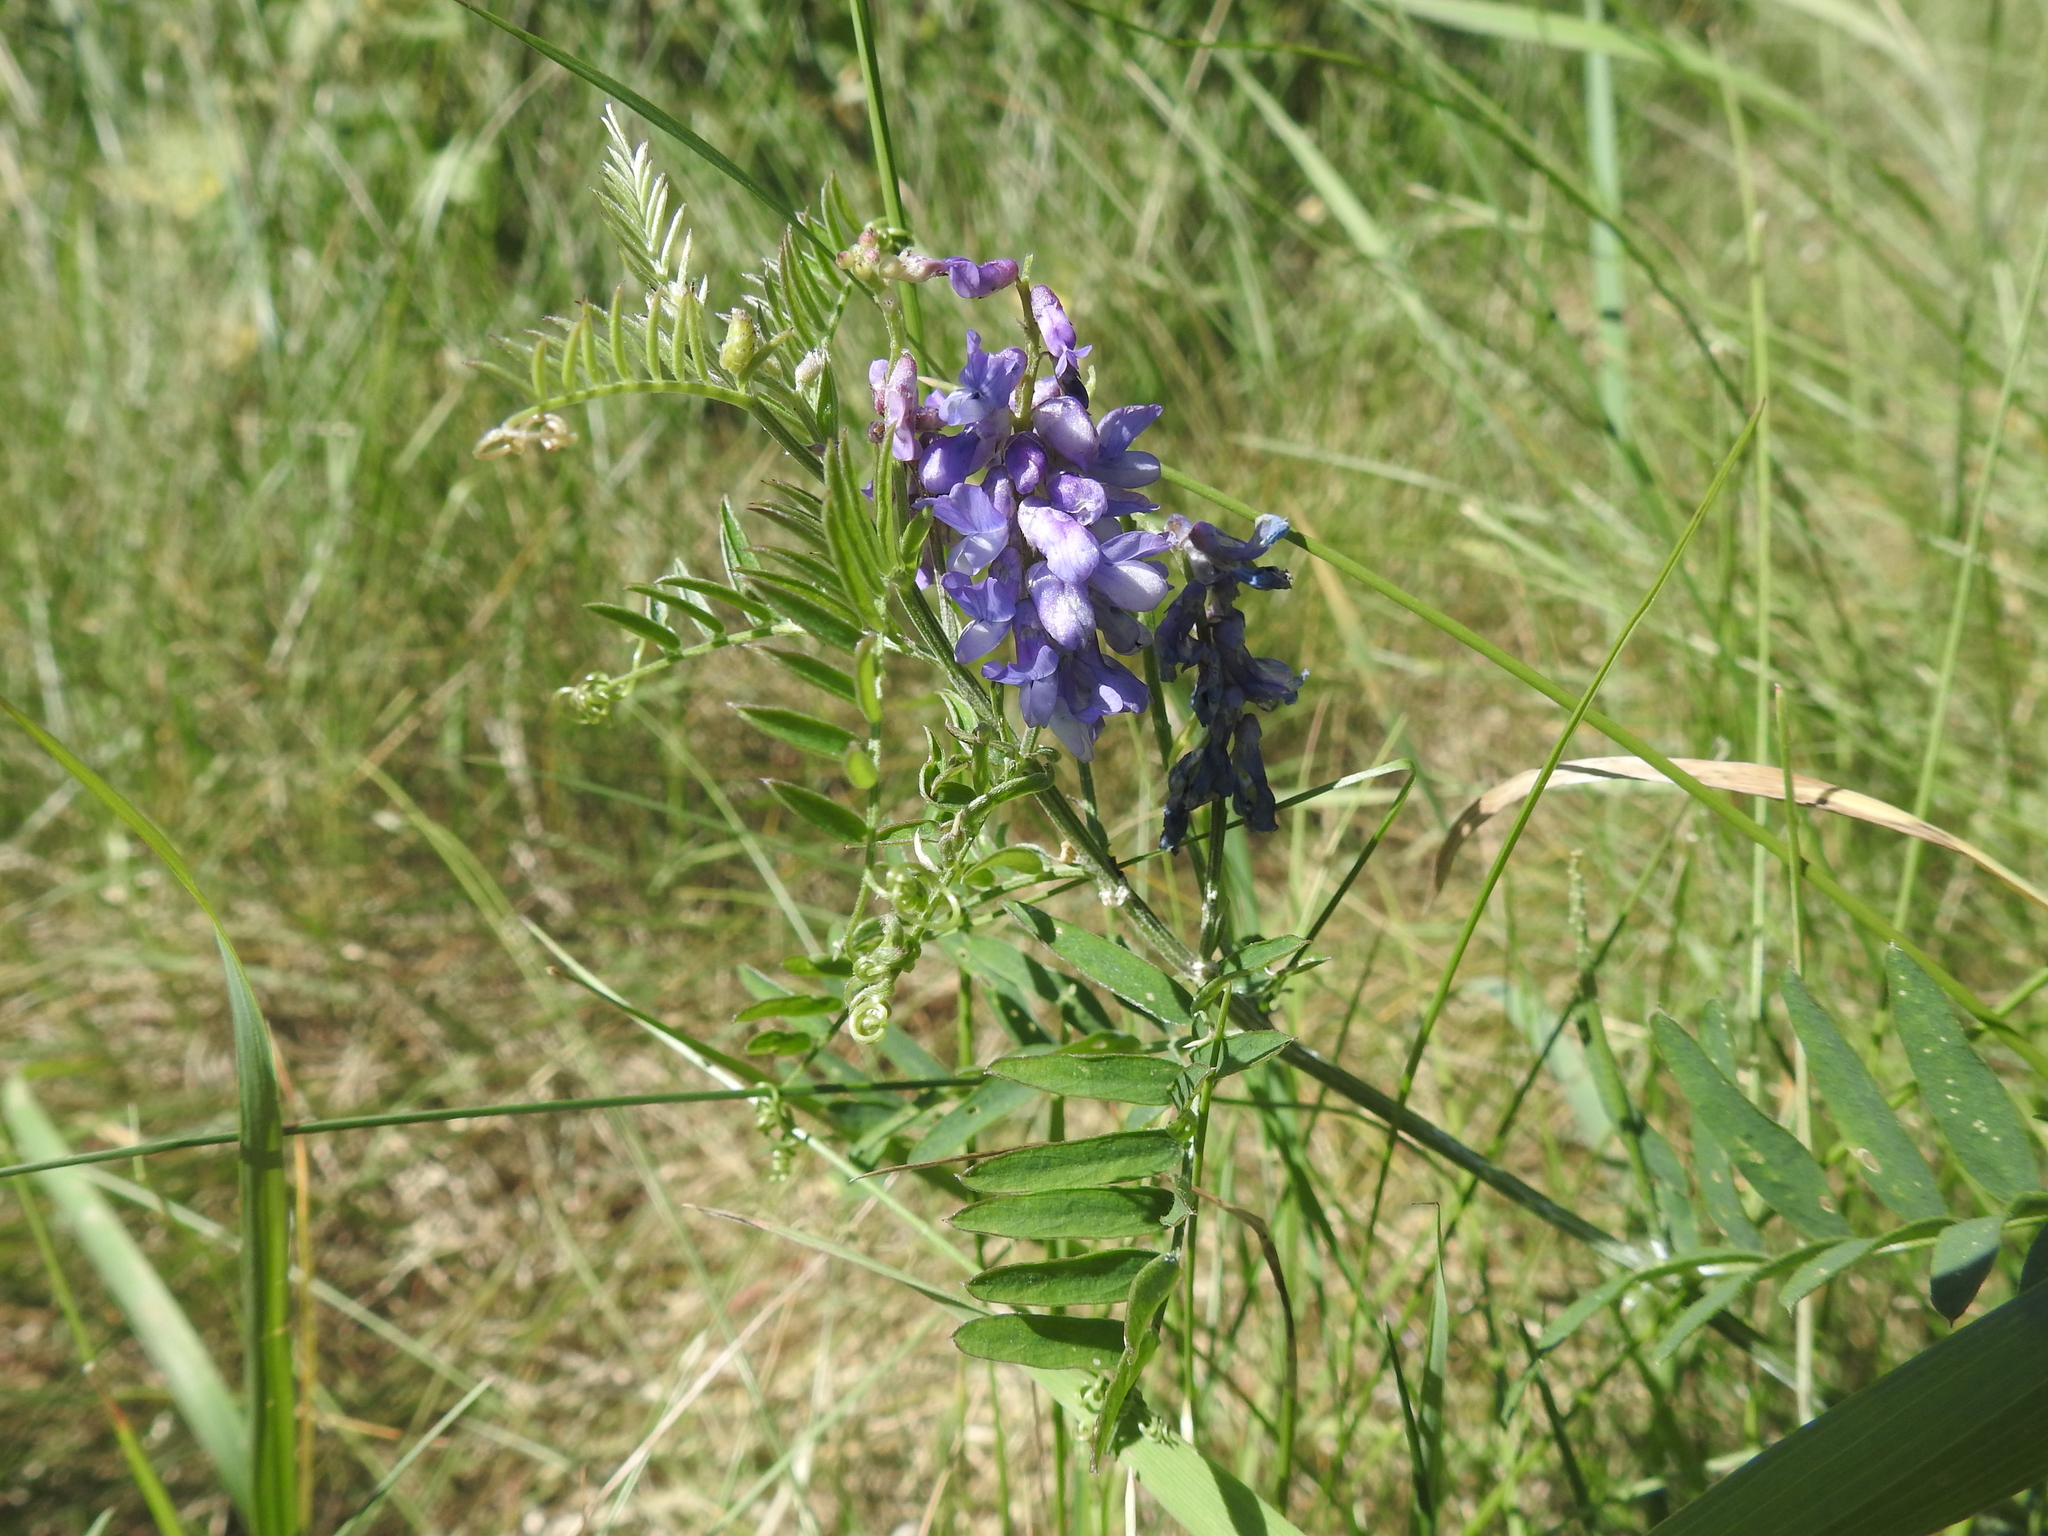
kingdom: Plantae
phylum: Tracheophyta
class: Magnoliopsida
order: Fabales
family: Fabaceae
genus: Vicia
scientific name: Vicia cracca
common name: Bird vetch
